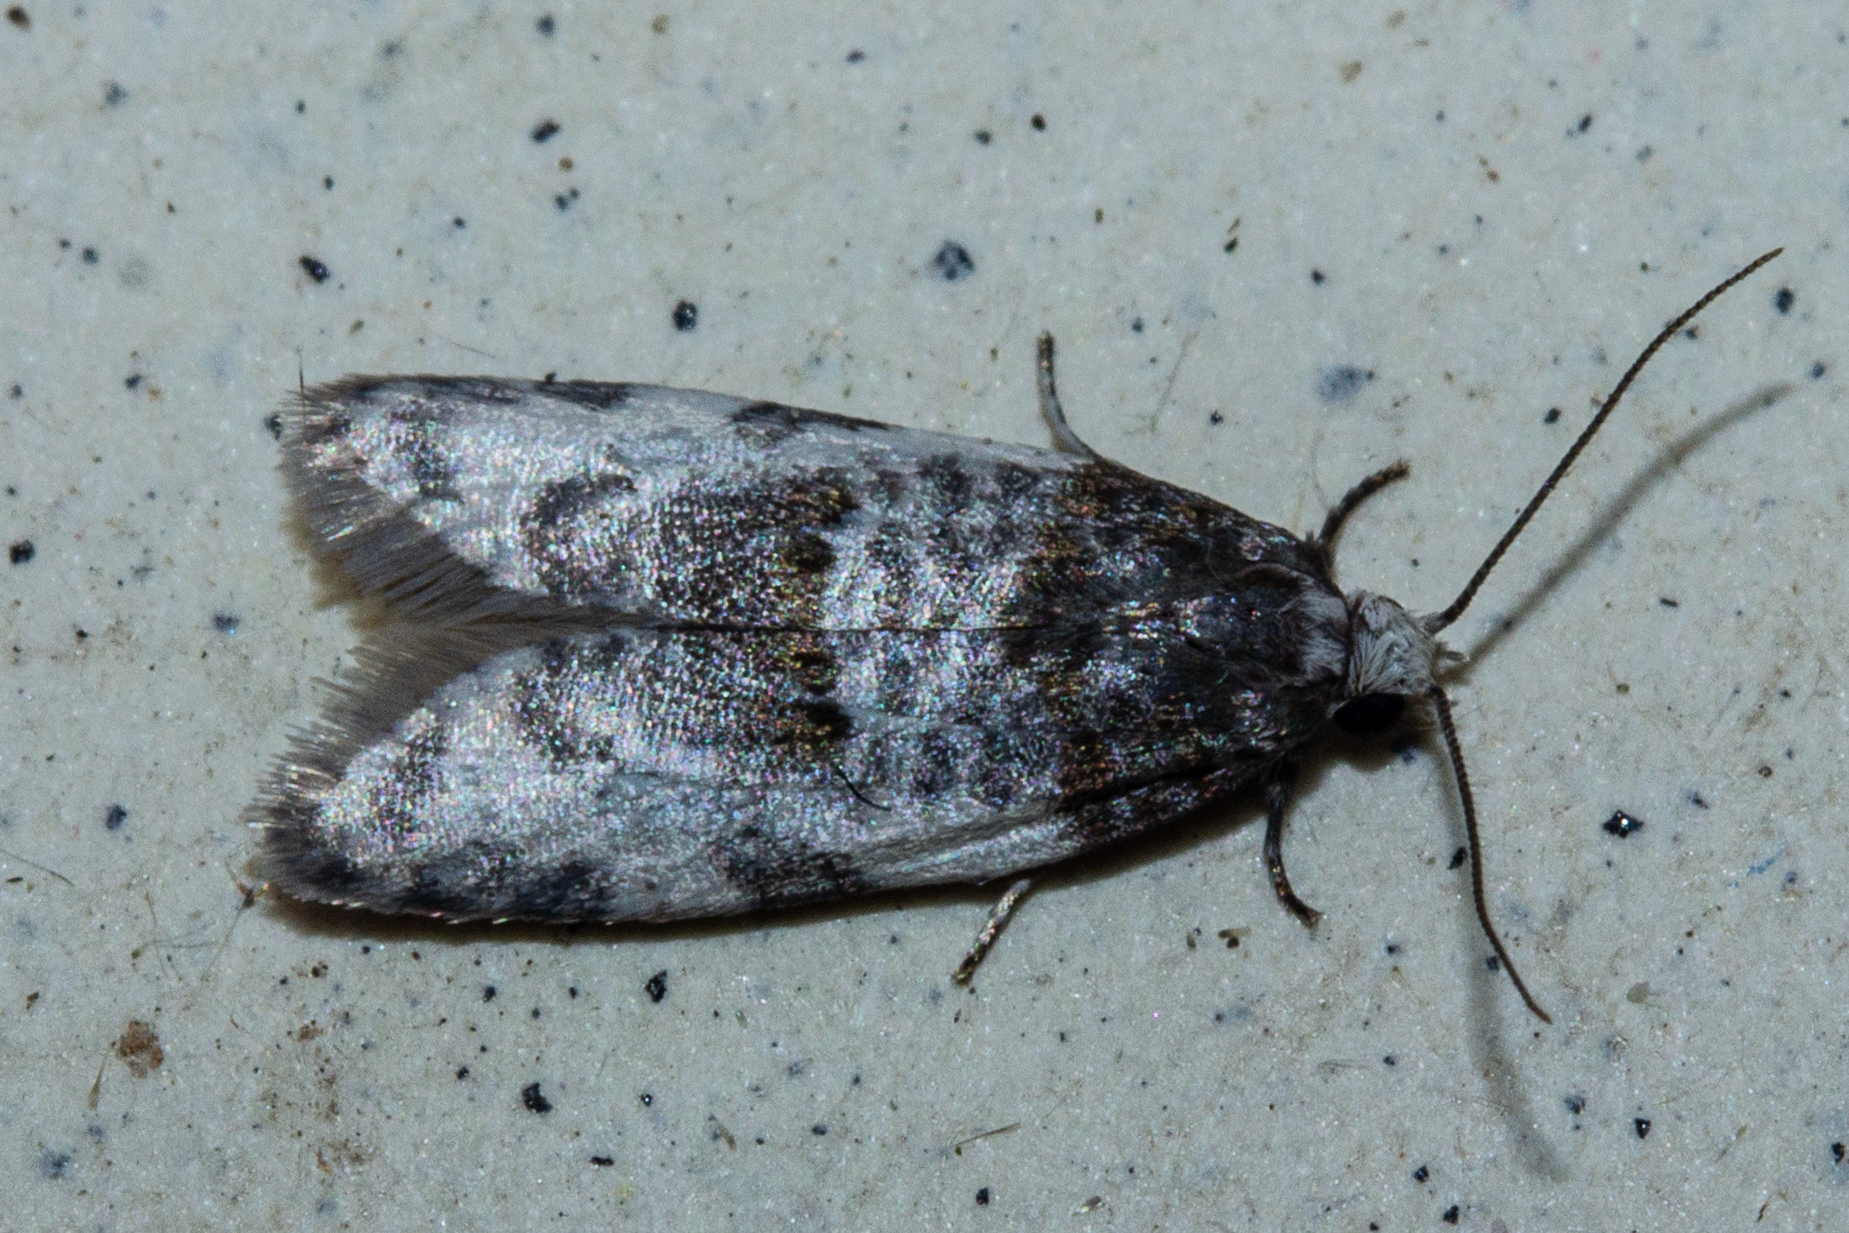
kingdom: Animalia
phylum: Arthropoda
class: Insecta
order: Lepidoptera
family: Tortricidae
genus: Prothelymna
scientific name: Prothelymna niphostrota
